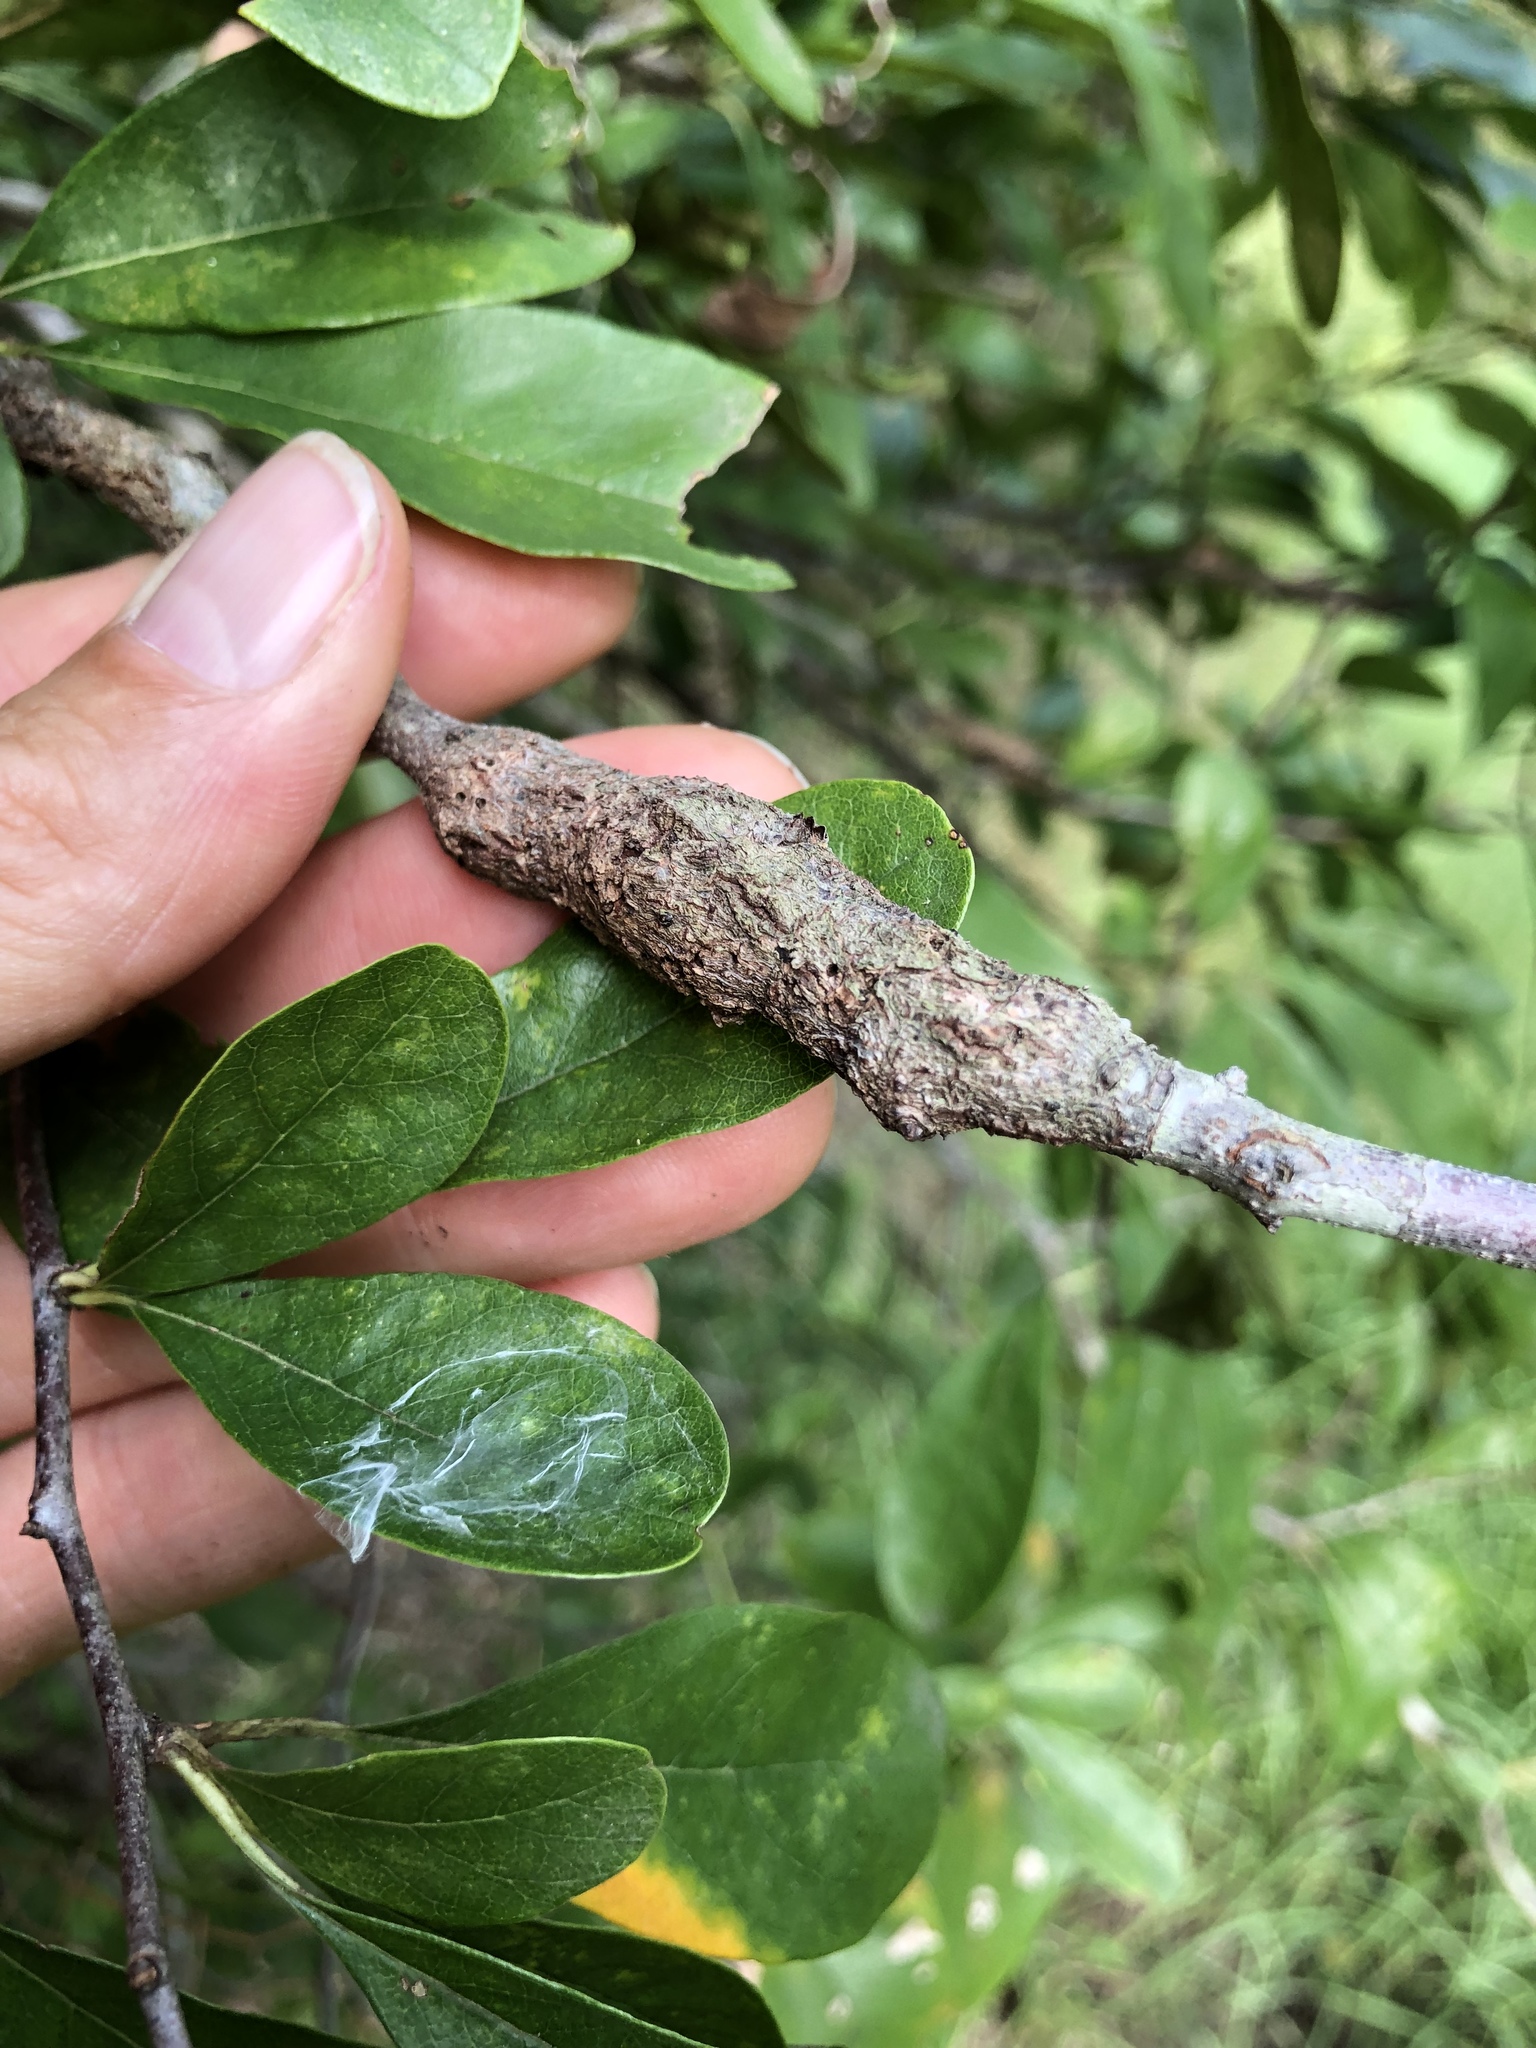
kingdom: Animalia
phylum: Arthropoda
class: Insecta
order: Diptera
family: Cecidomyiidae
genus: Bruggmanniella
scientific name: Bruggmanniella bumeliae
